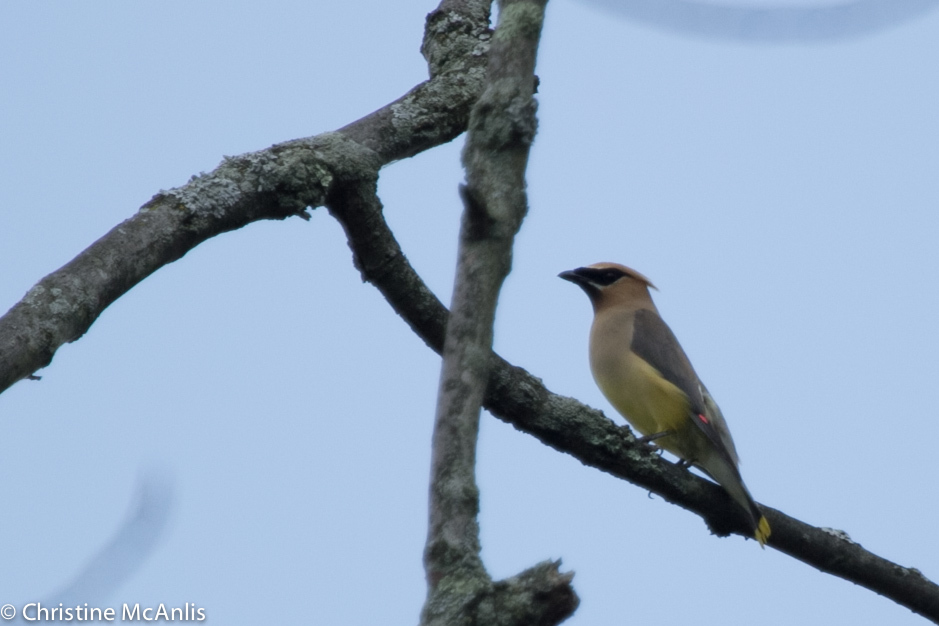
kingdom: Animalia
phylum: Chordata
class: Aves
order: Passeriformes
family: Bombycillidae
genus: Bombycilla
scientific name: Bombycilla cedrorum
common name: Cedar waxwing
